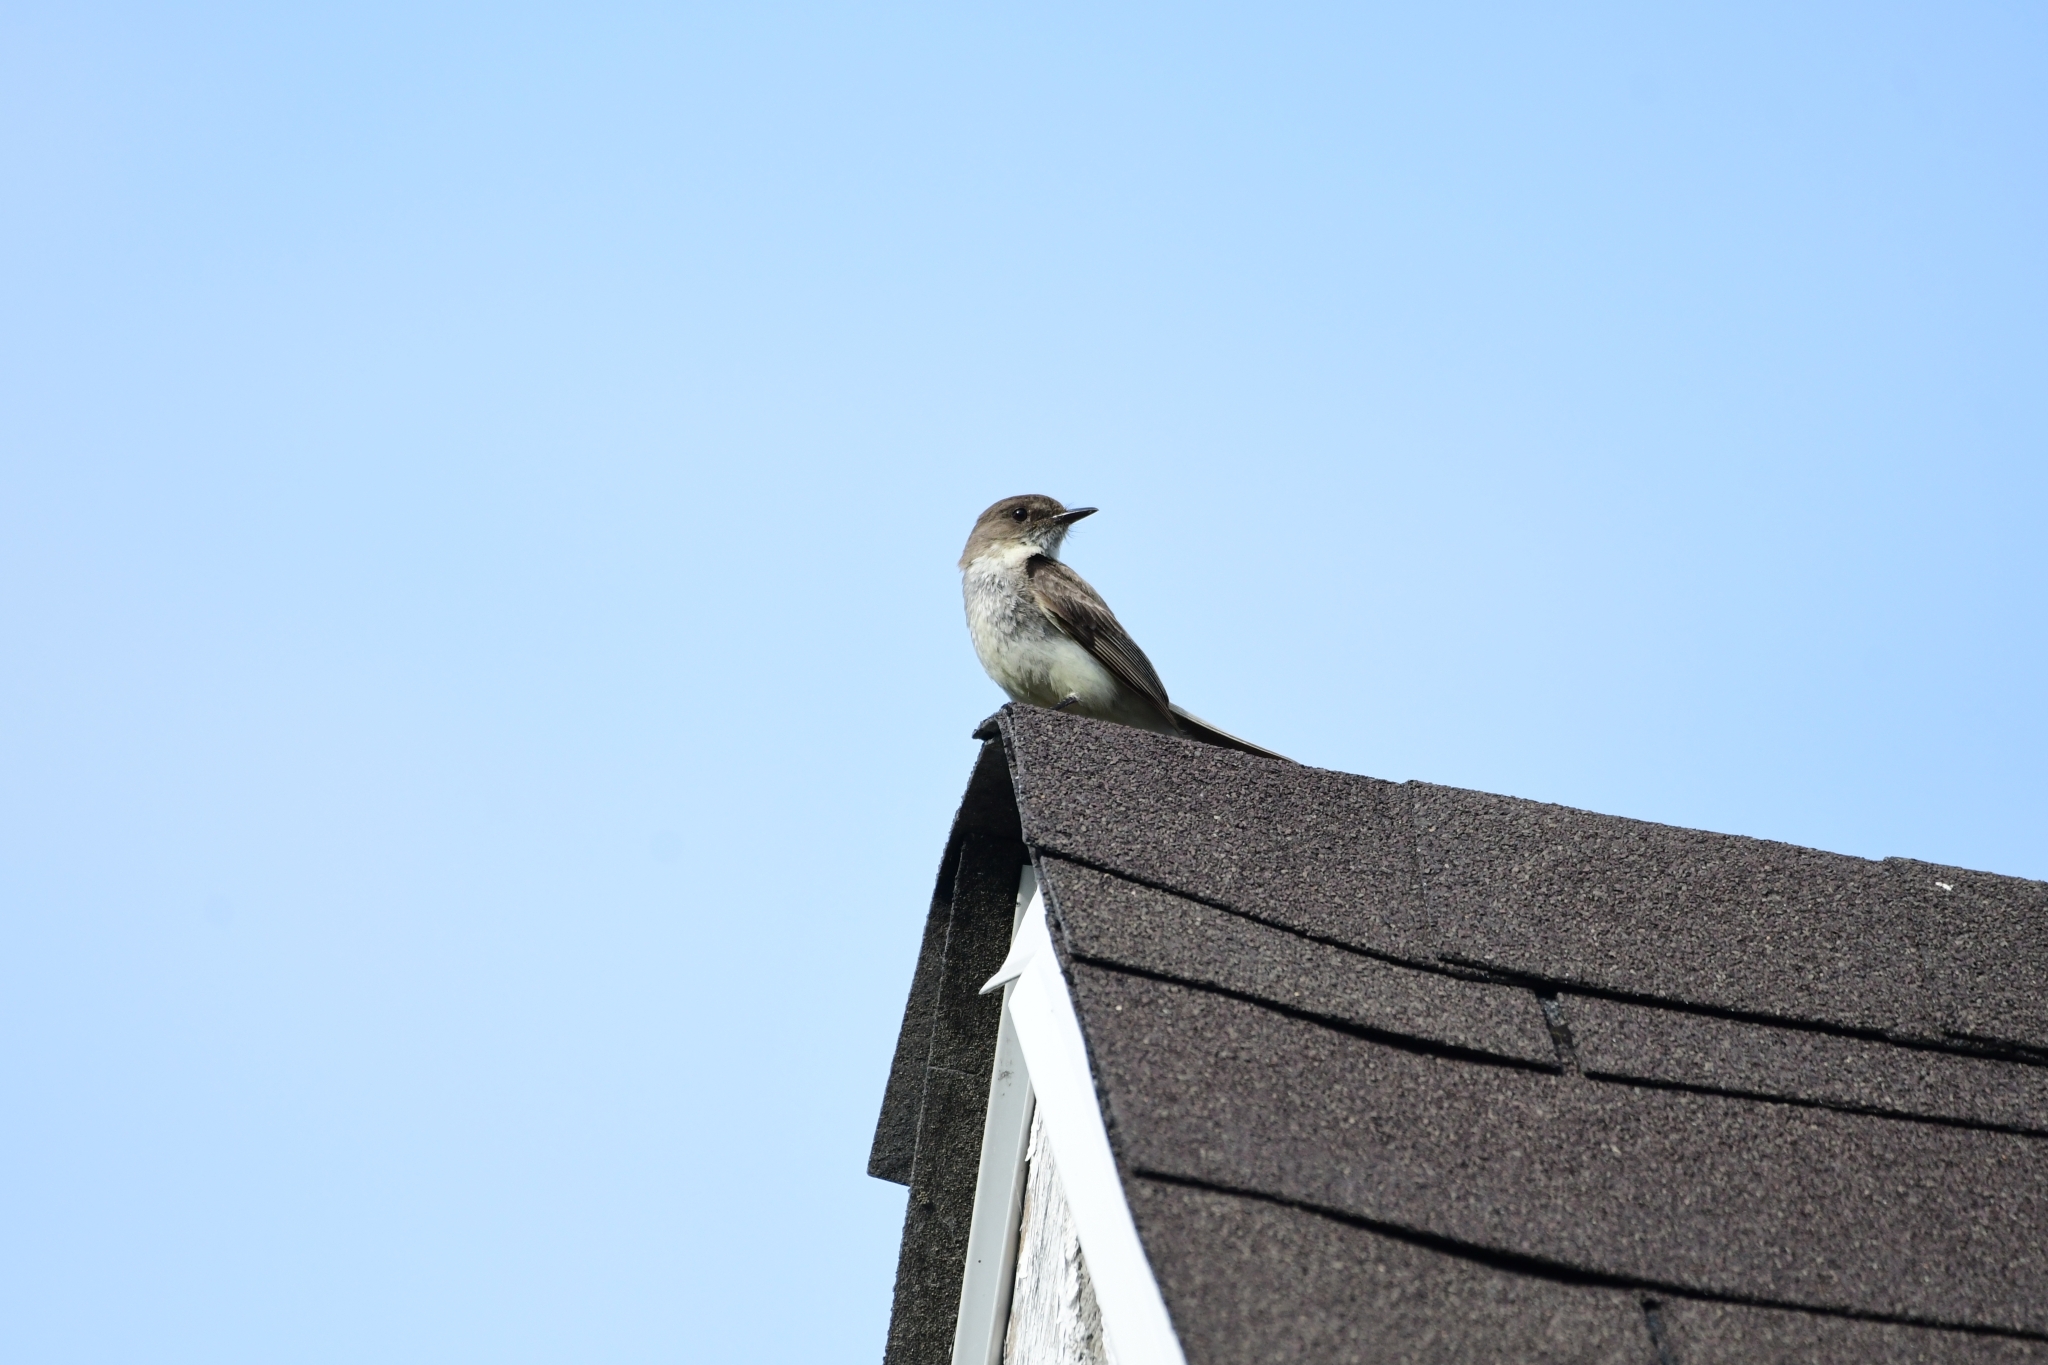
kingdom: Animalia
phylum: Chordata
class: Aves
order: Passeriformes
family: Tyrannidae
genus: Sayornis
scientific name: Sayornis phoebe
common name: Eastern phoebe
